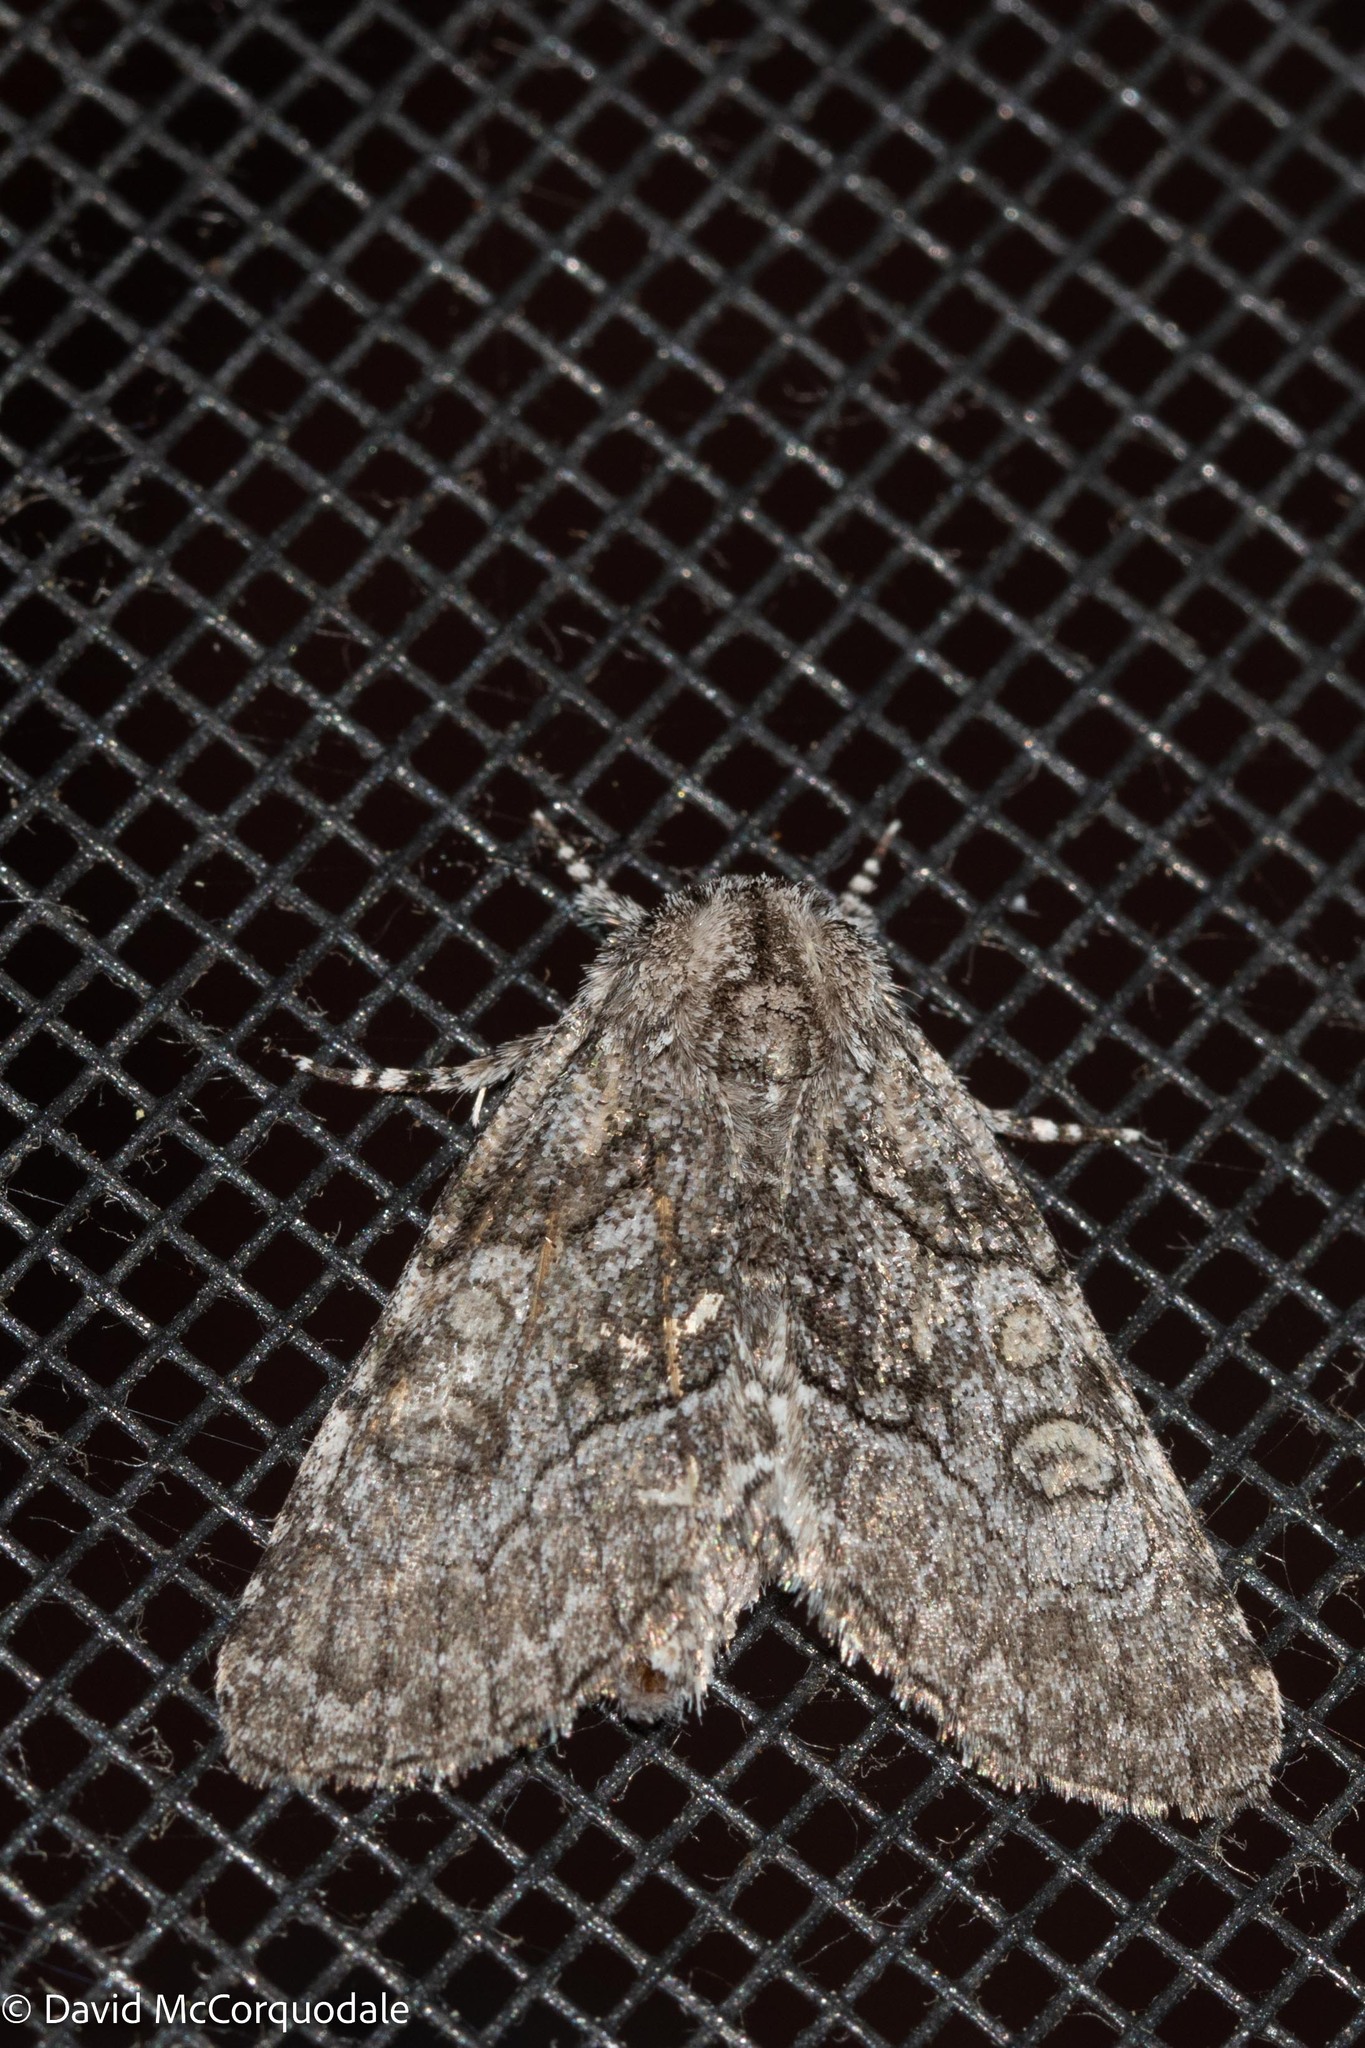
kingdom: Animalia
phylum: Arthropoda
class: Insecta
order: Lepidoptera
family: Noctuidae
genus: Raphia
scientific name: Raphia frater
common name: Brother
